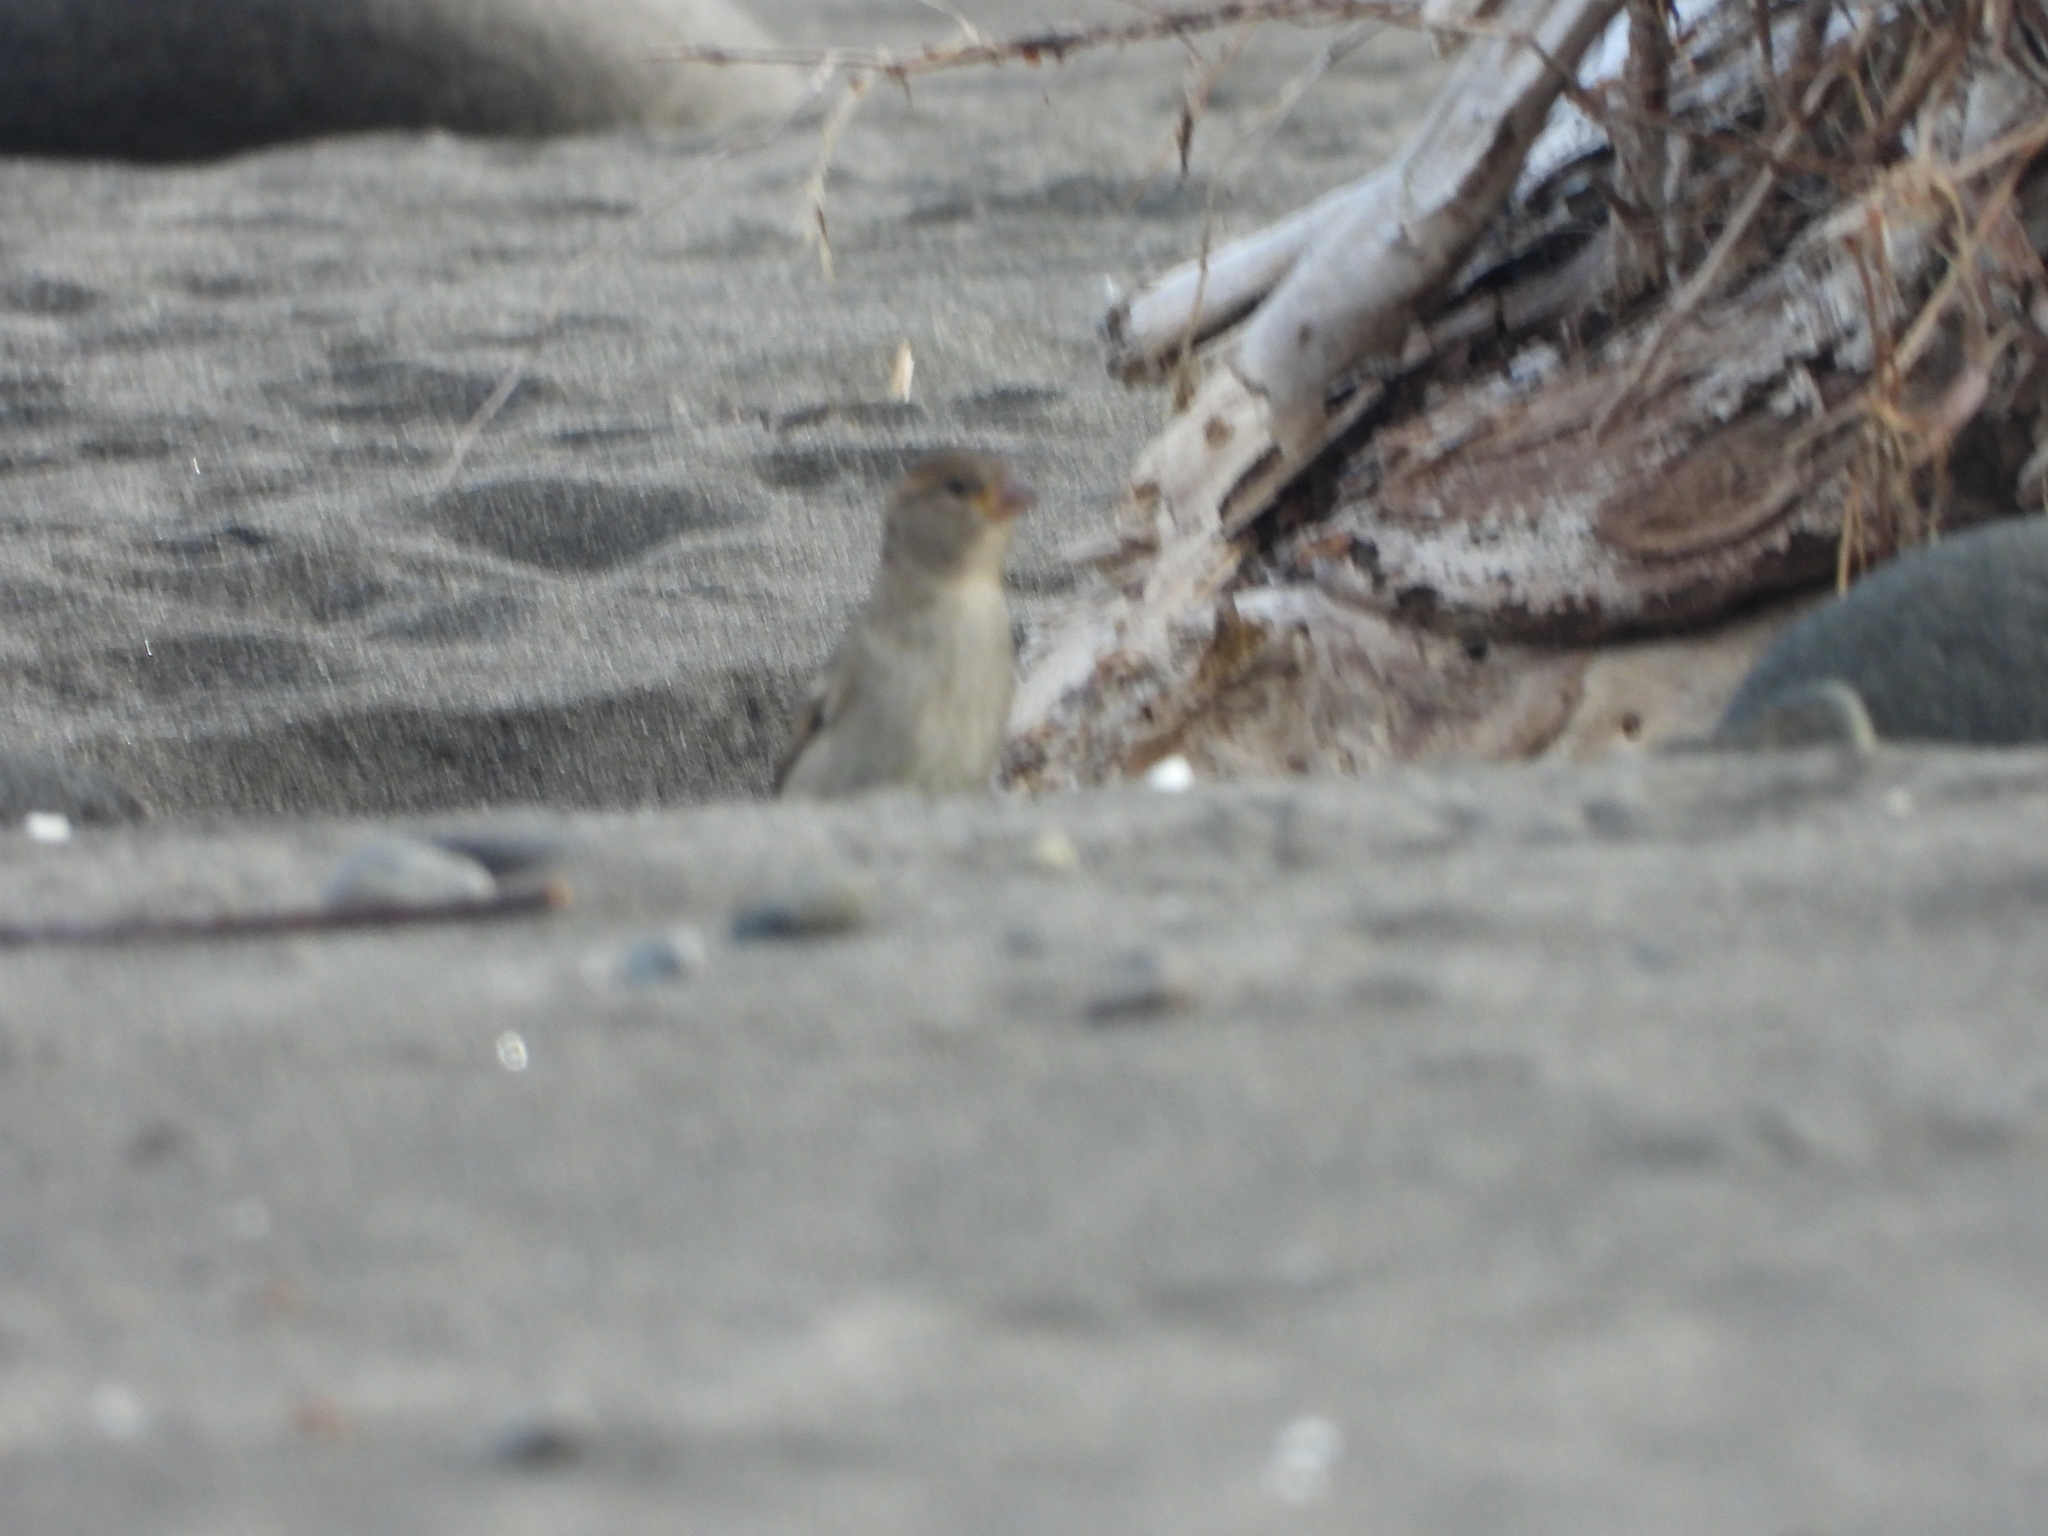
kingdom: Animalia
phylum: Chordata
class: Aves
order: Passeriformes
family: Passeridae
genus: Passer
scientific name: Passer domesticus
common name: House sparrow
